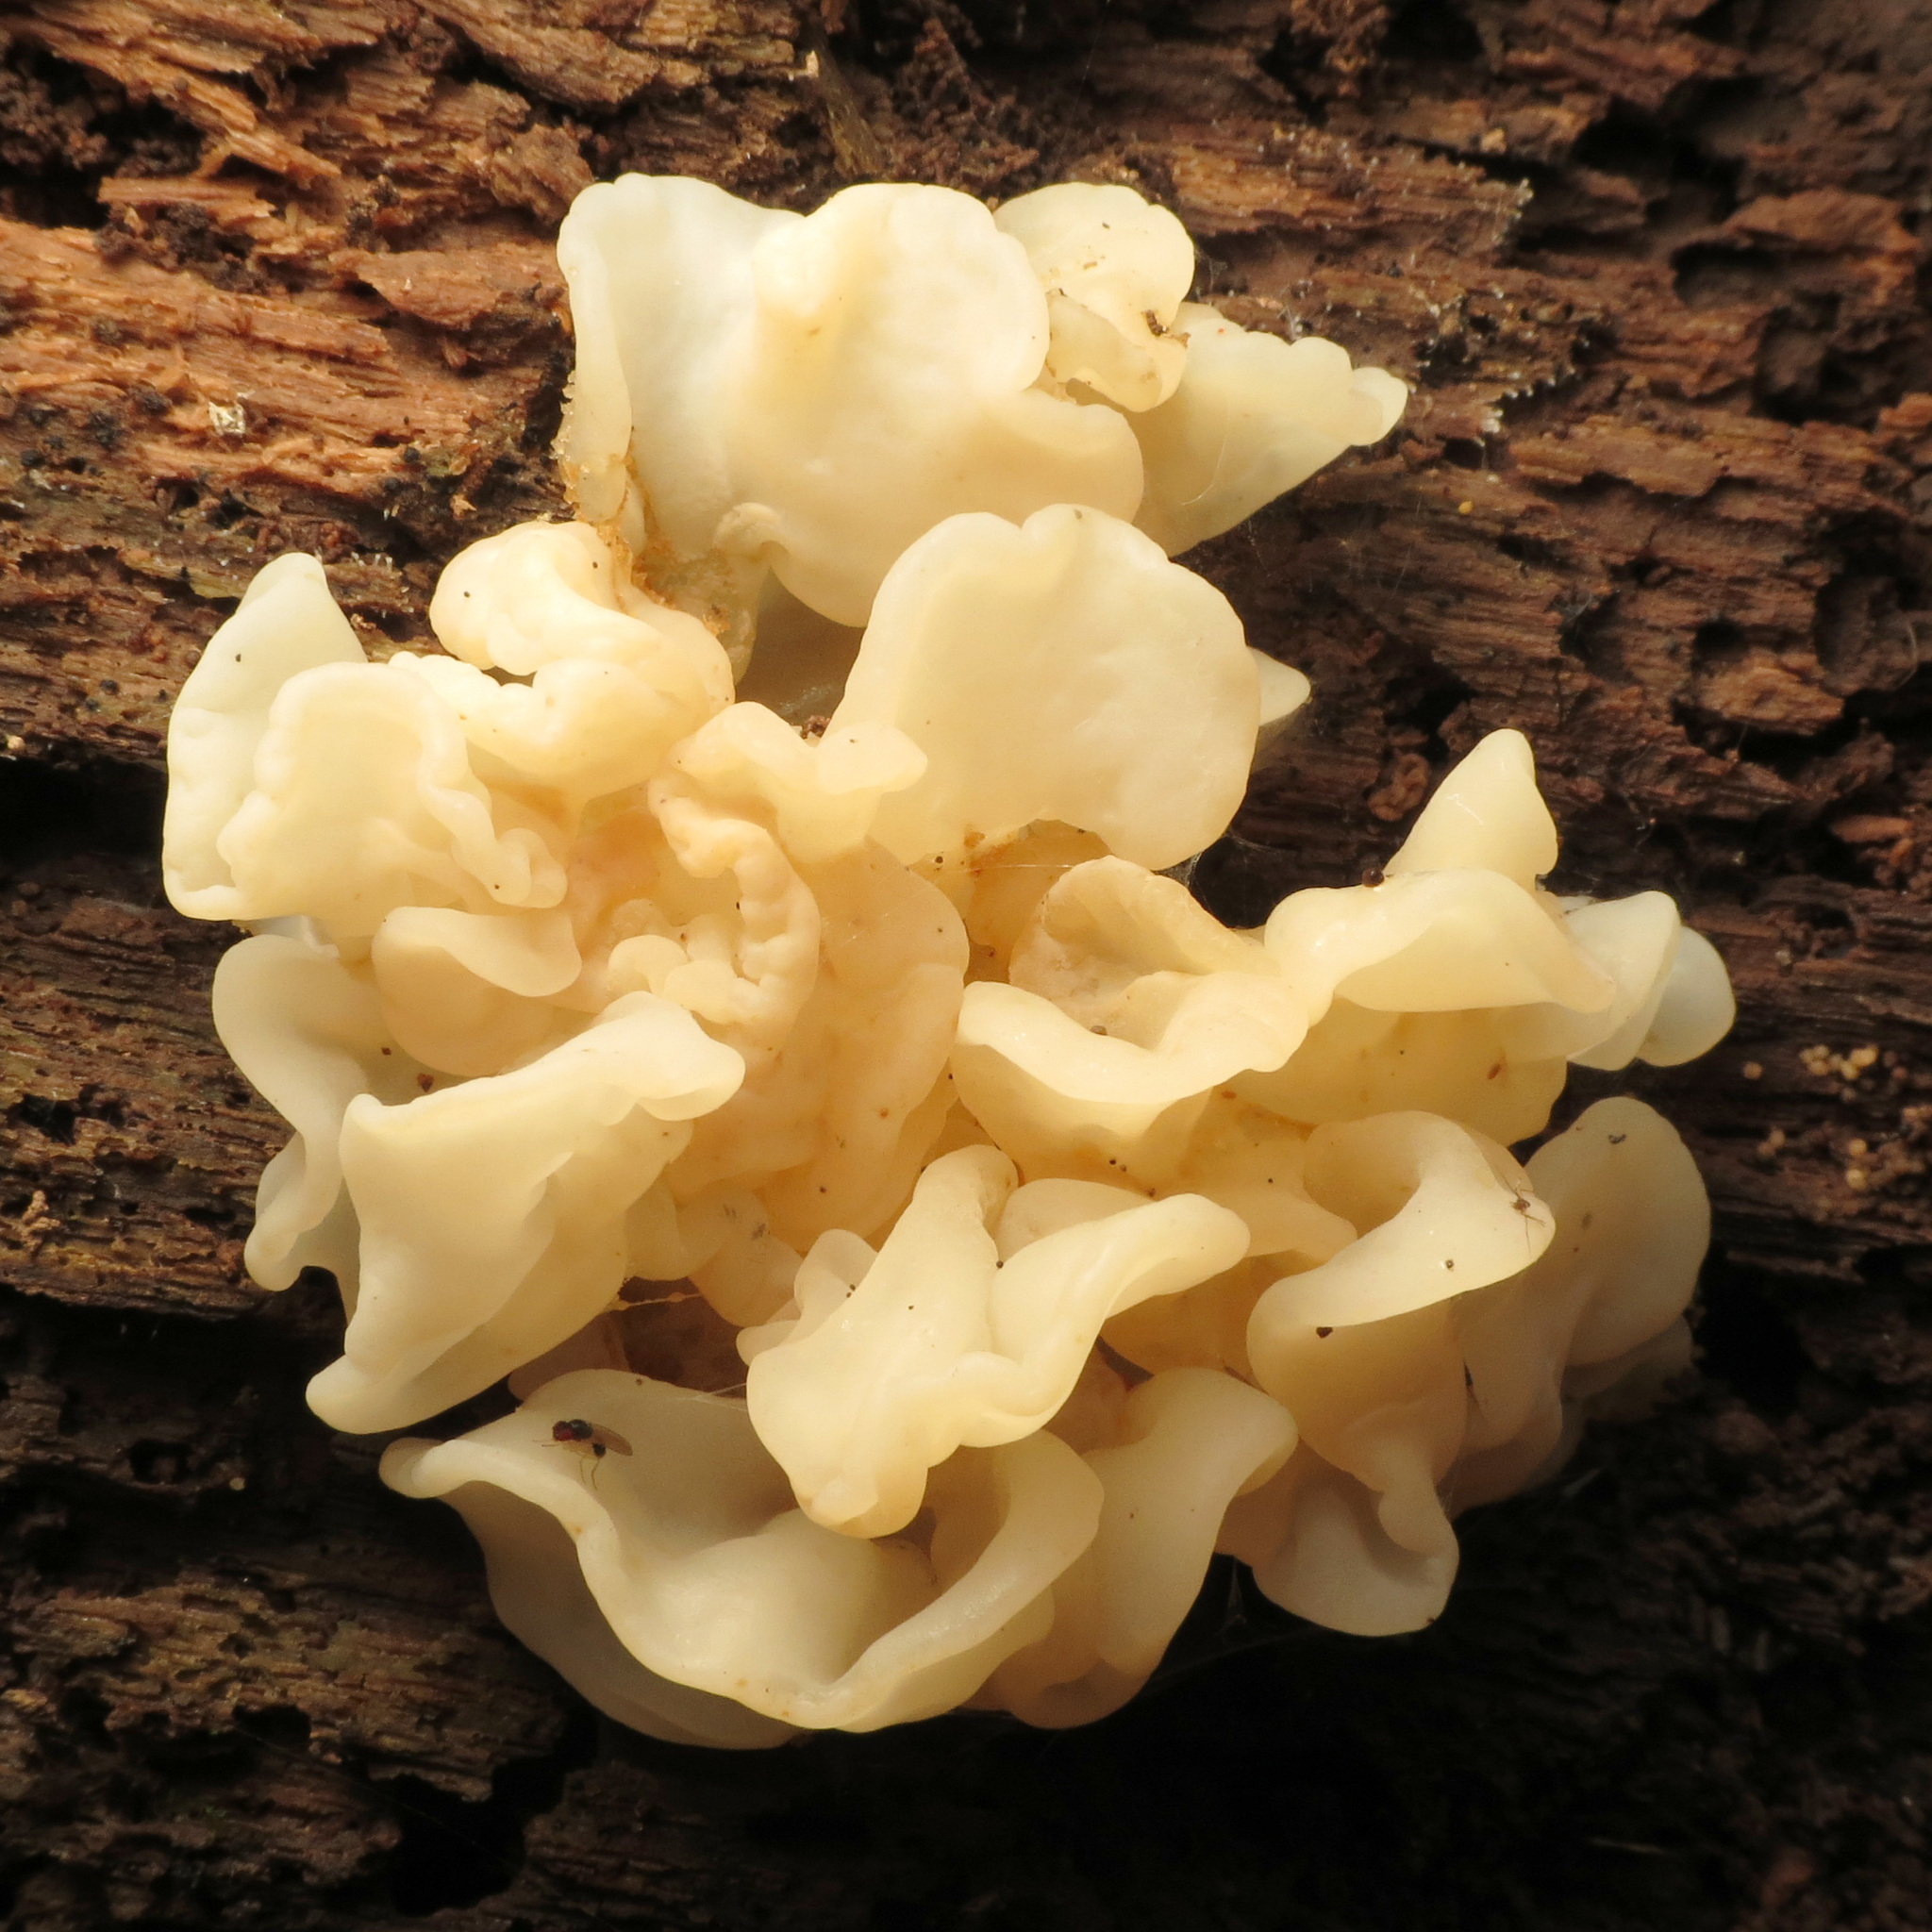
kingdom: Fungi
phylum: Basidiomycota
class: Agaricomycetes
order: Auriculariales
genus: Ductifera
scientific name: Ductifera pululahuana
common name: White jelly fungus
